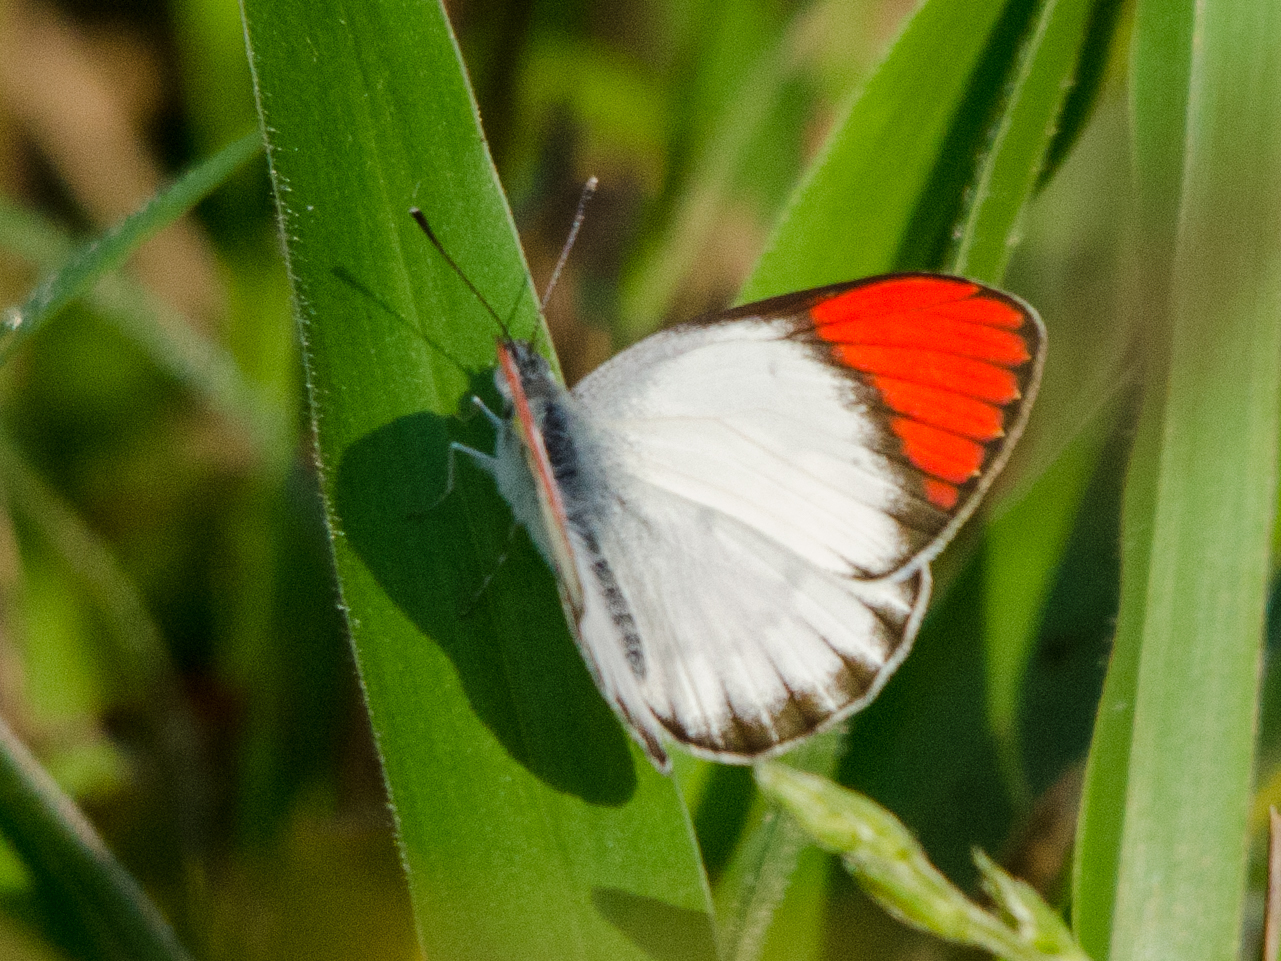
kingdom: Animalia
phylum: Arthropoda
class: Insecta
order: Lepidoptera
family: Pieridae
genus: Colotis
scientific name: Colotis danae
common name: Crimson tip
